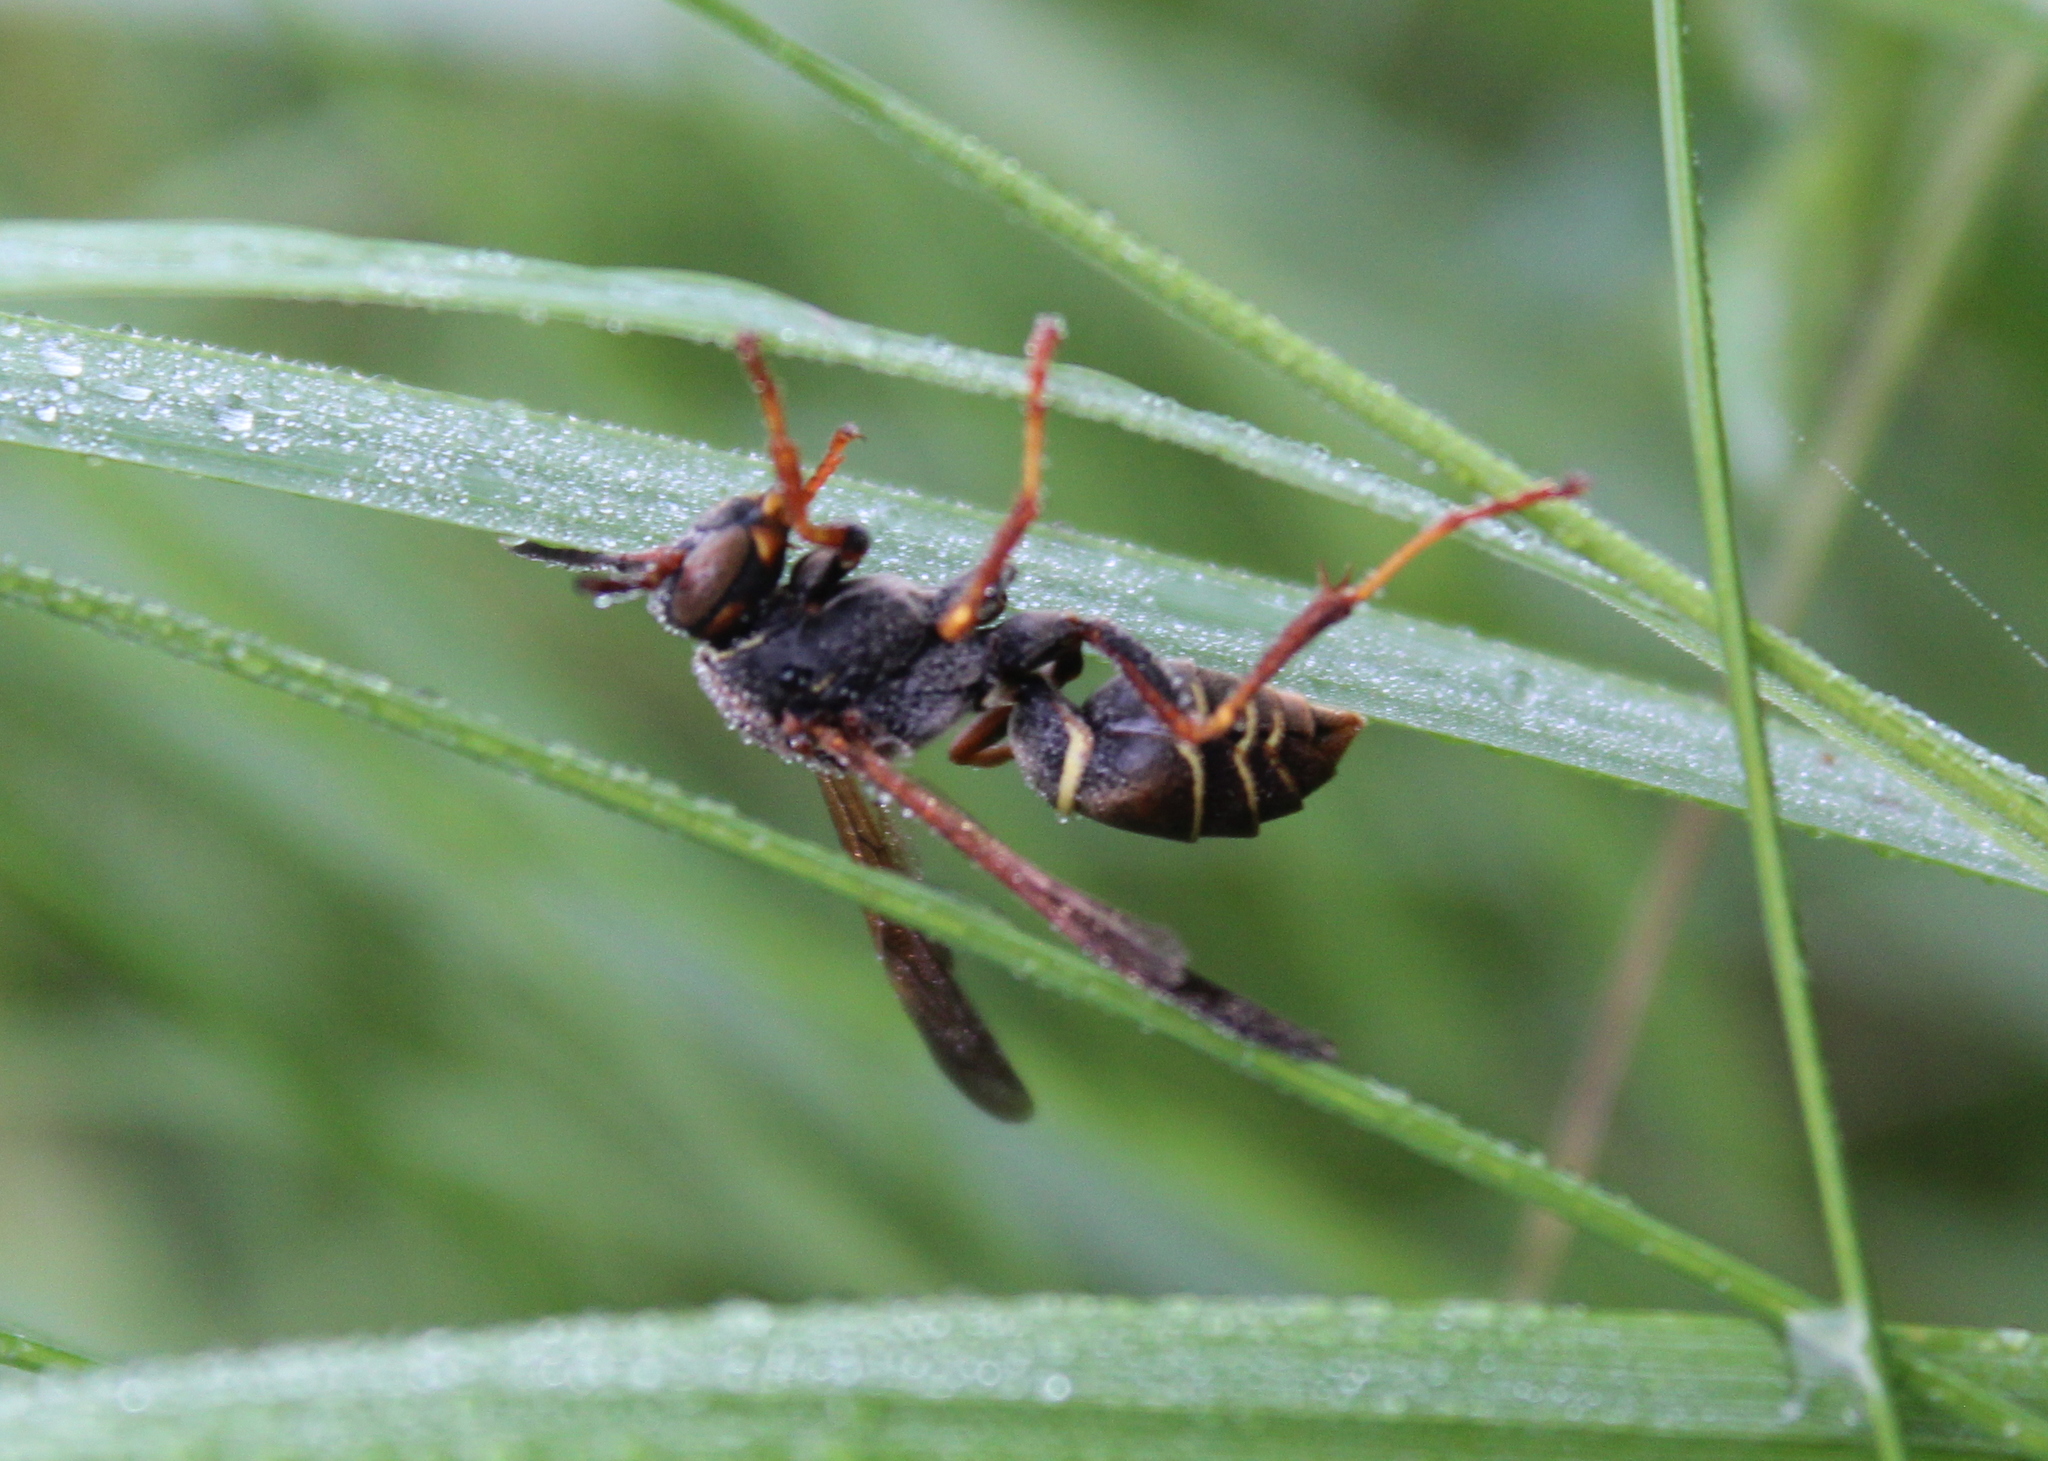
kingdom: Animalia
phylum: Arthropoda
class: Insecta
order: Hymenoptera
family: Eumenidae
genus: Polistes
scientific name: Polistes fuscatus
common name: Dark paper wasp
